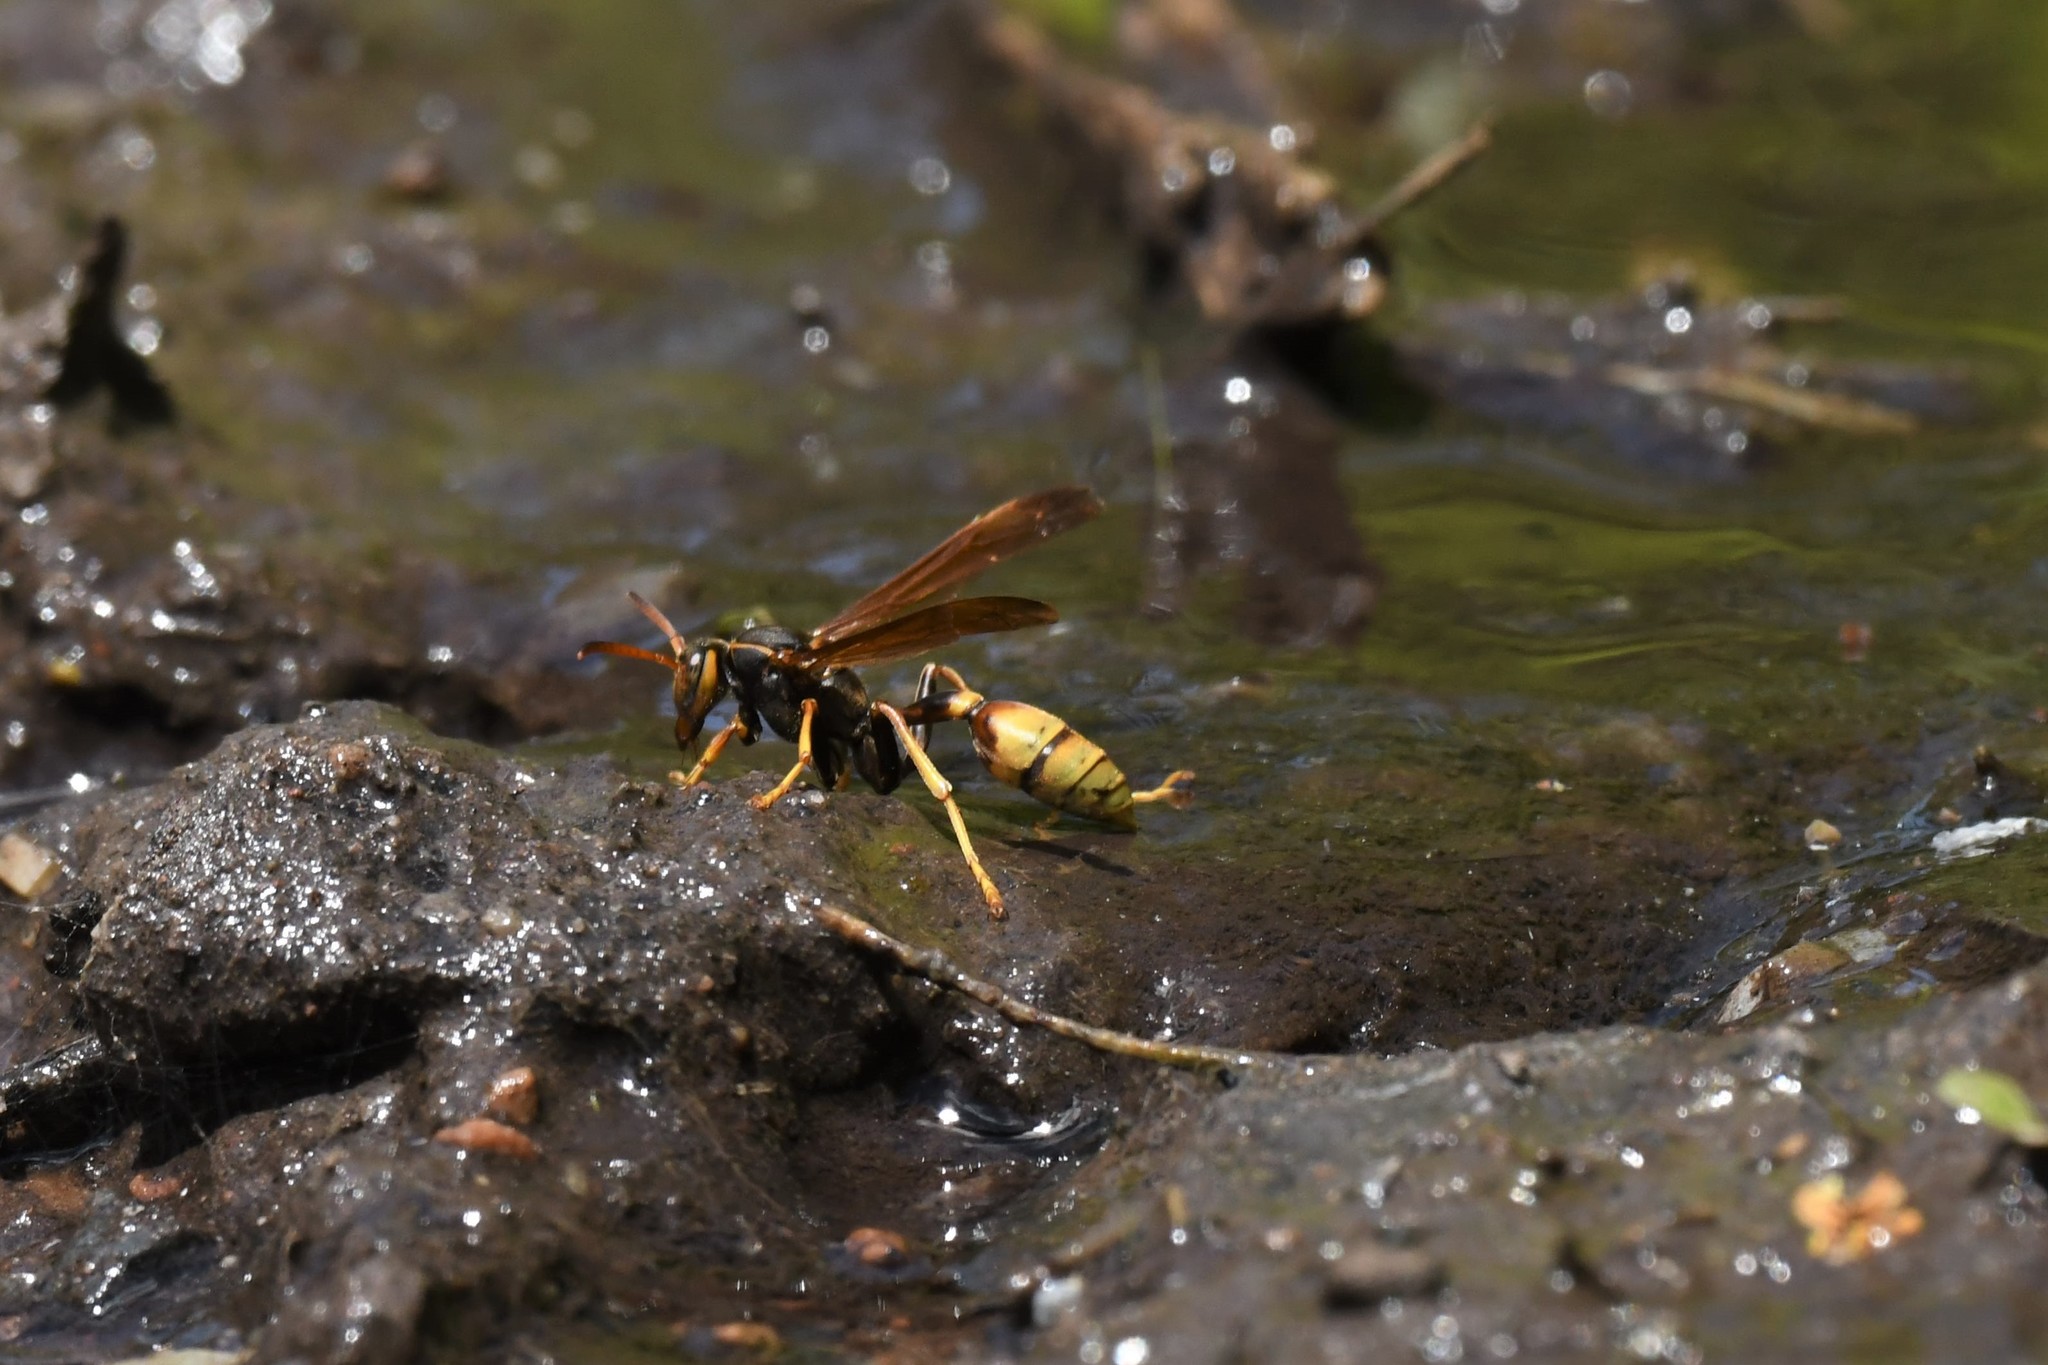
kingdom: Animalia
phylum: Arthropoda
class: Insecta
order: Hymenoptera
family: Vespidae
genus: Mischocyttarus
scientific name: Mischocyttarus flavitarsis
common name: Wasp
